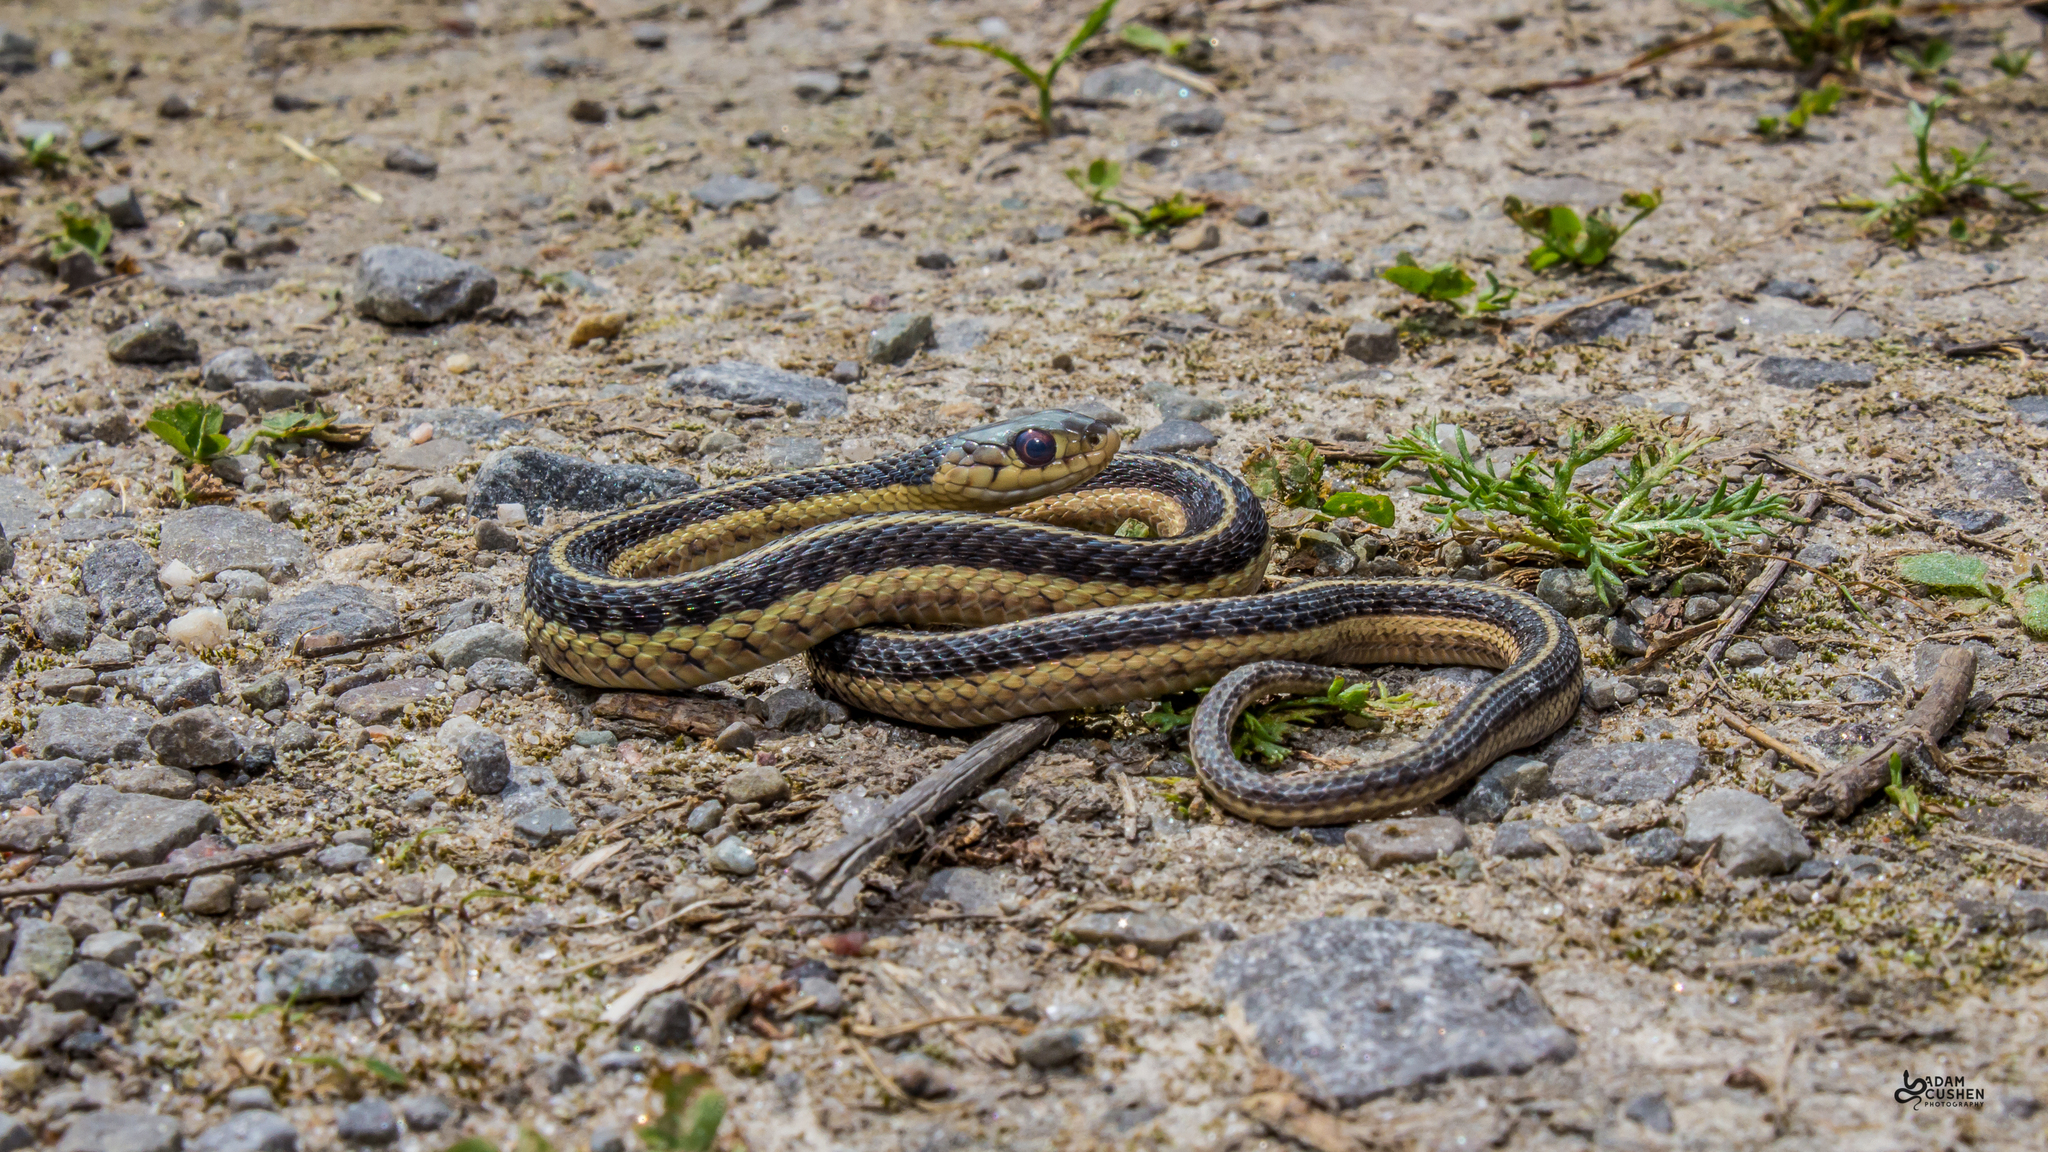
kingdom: Animalia
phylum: Chordata
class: Squamata
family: Colubridae
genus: Thamnophis
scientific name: Thamnophis sirtalis
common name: Common garter snake
